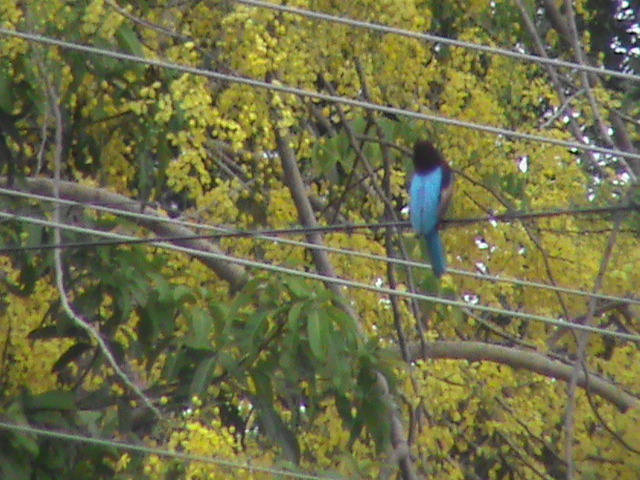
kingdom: Animalia
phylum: Chordata
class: Aves
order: Coraciiformes
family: Alcedinidae
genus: Halcyon
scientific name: Halcyon smyrnensis
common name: White-throated kingfisher
